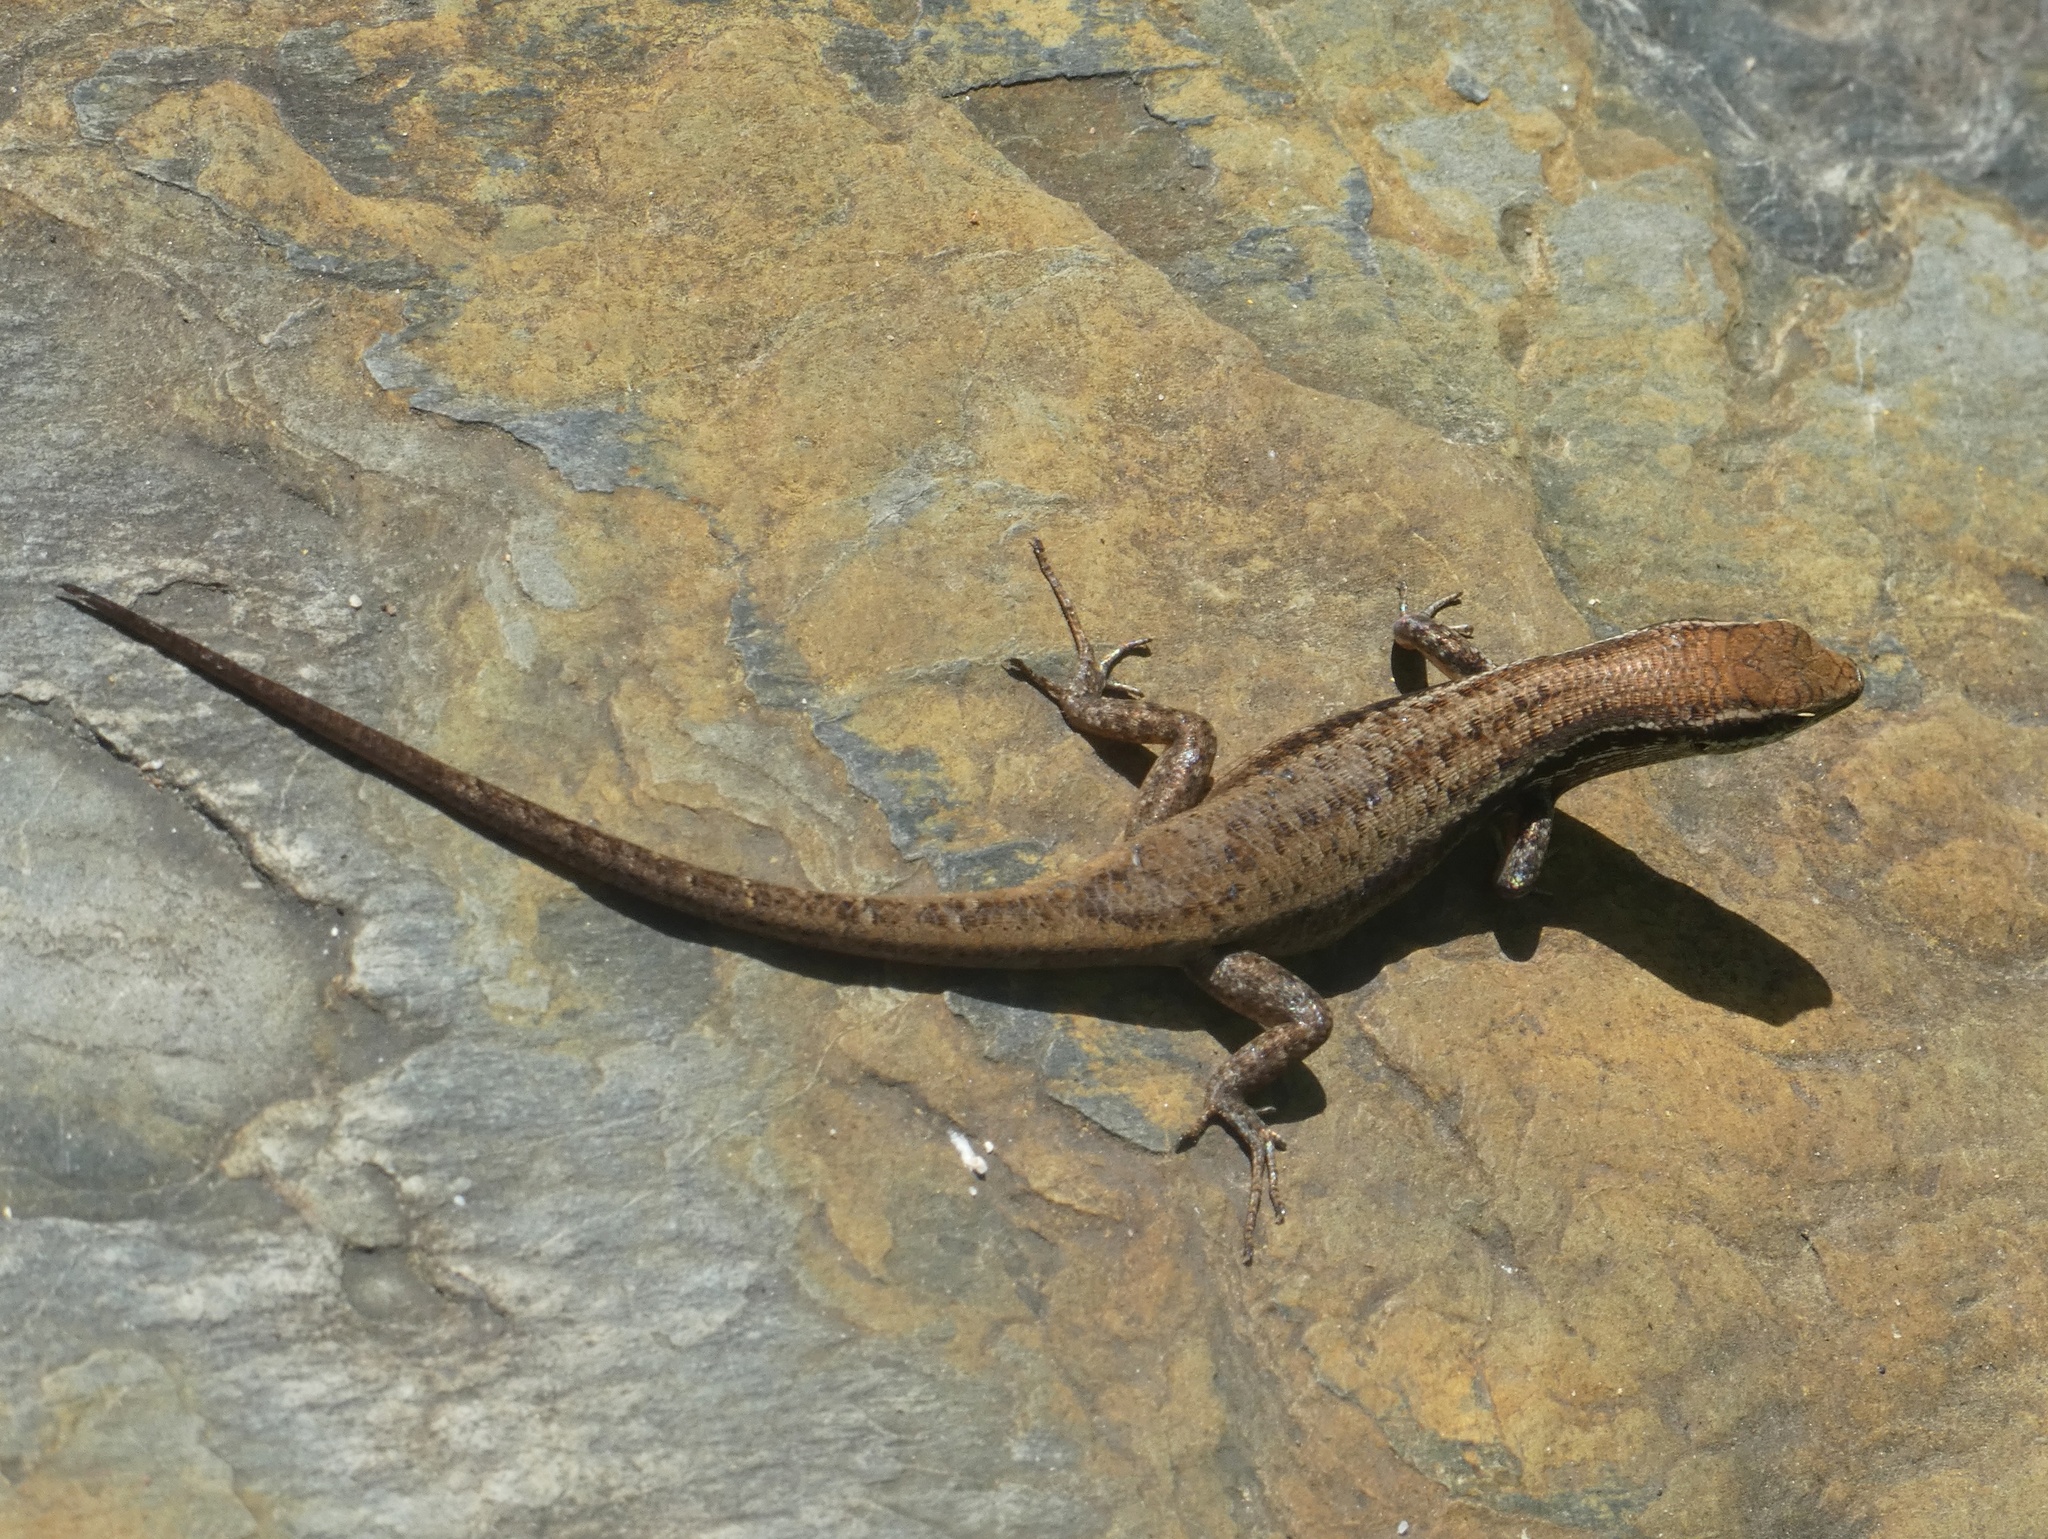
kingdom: Animalia
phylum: Chordata
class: Squamata
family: Scincidae
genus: Carlia
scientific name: Carlia crypta
